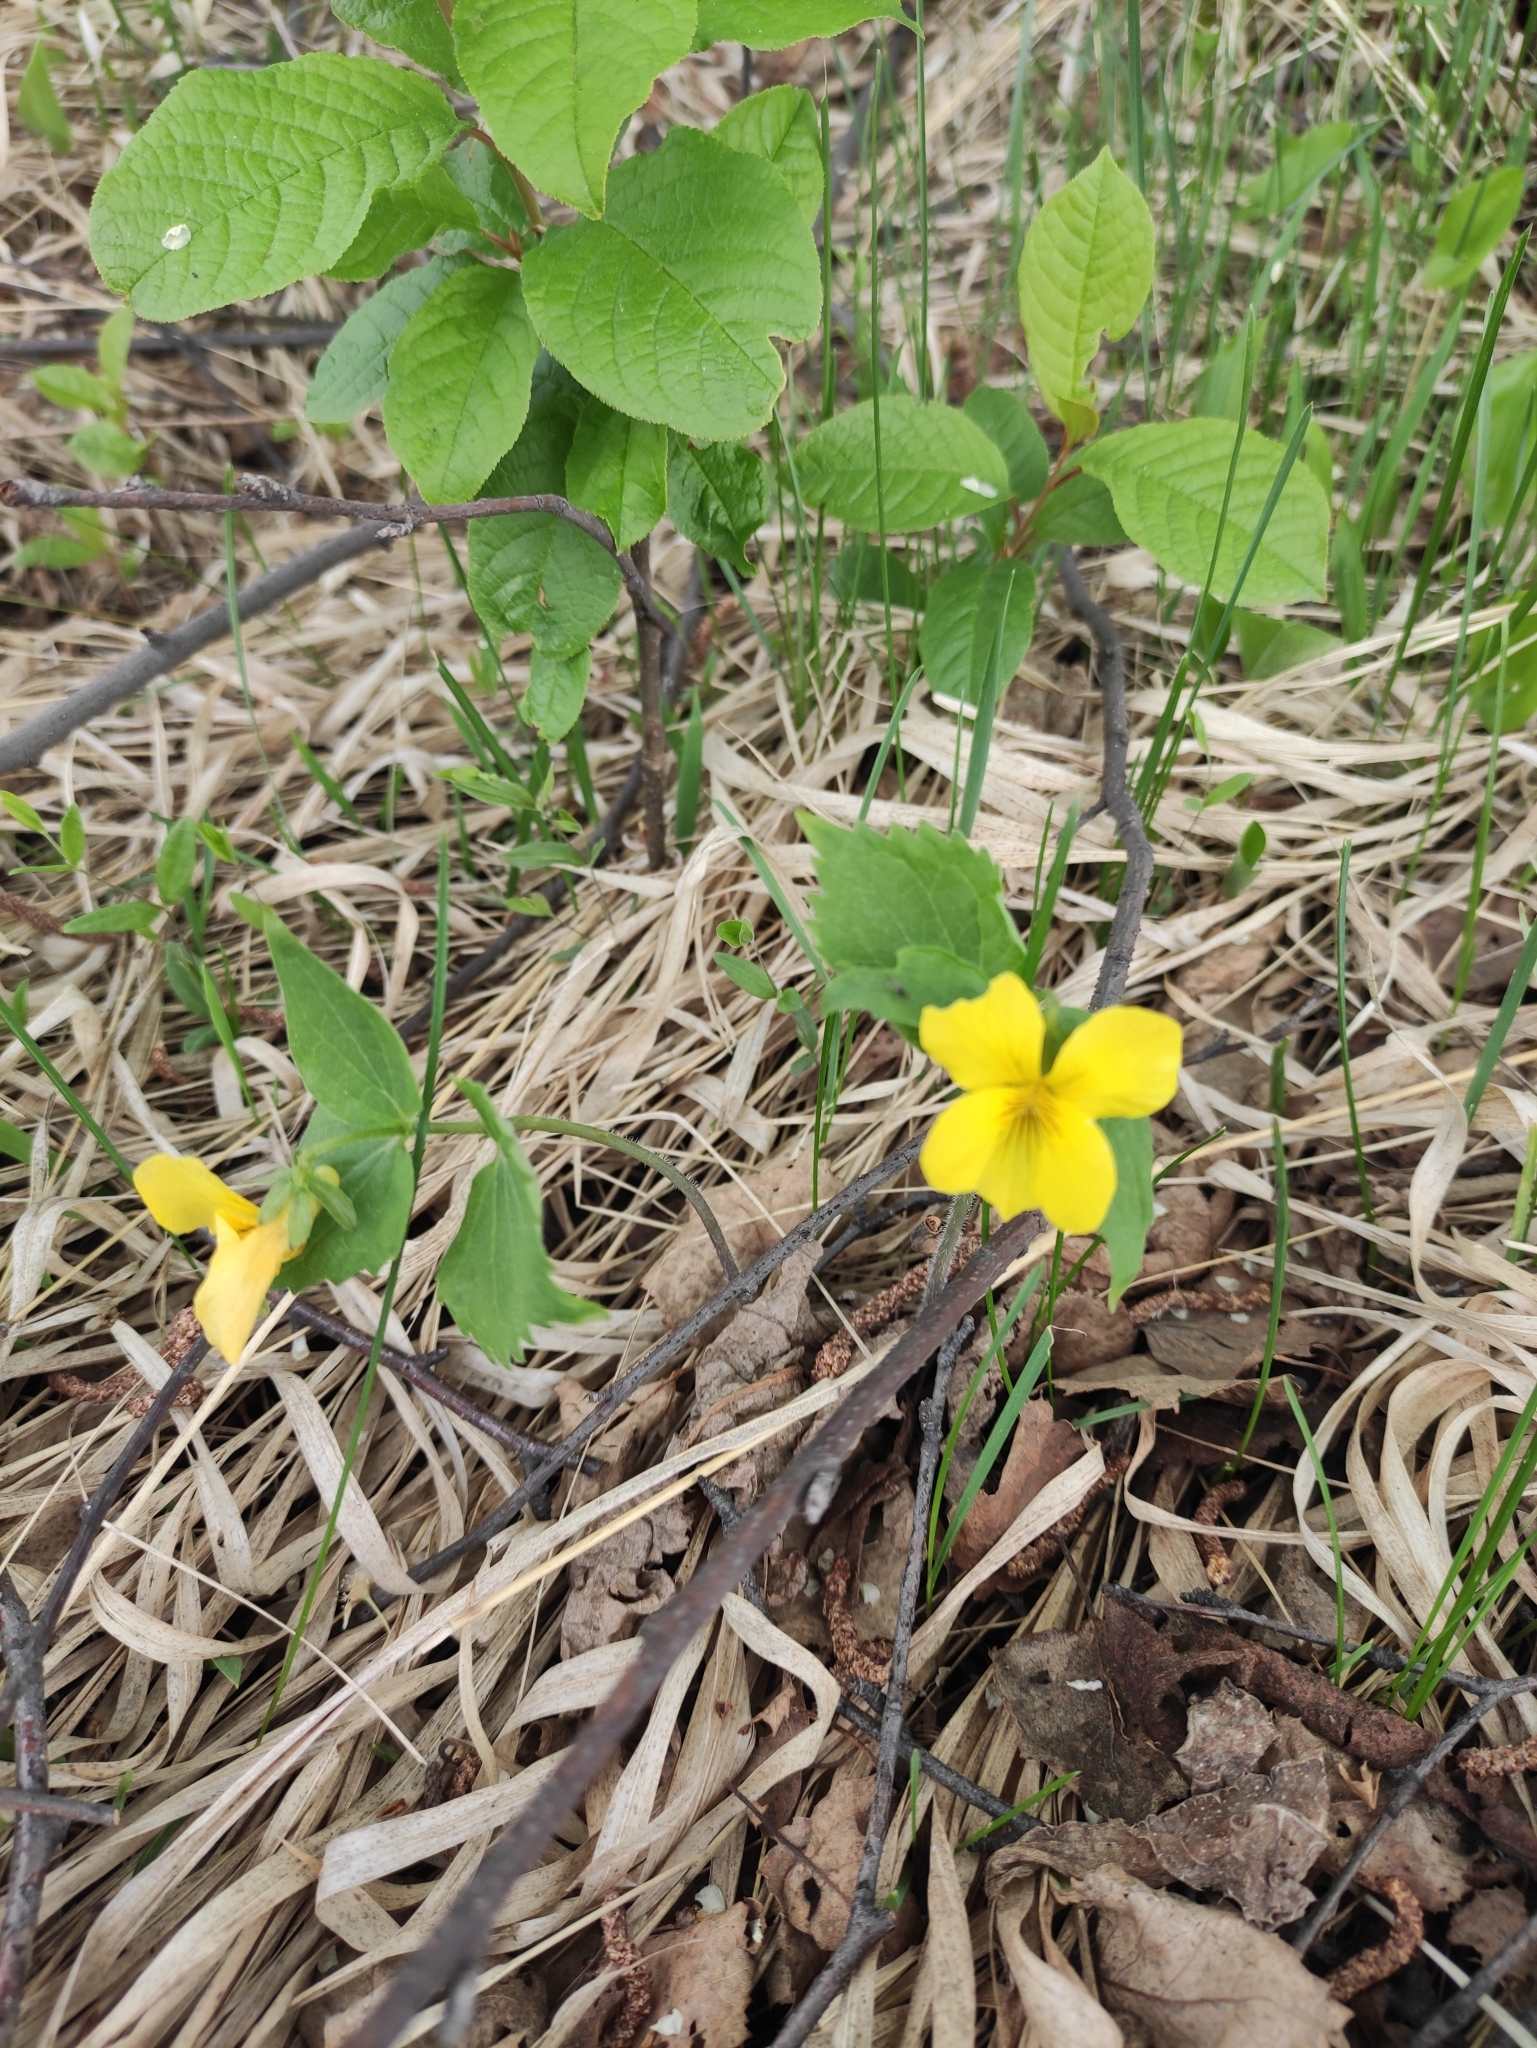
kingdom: Plantae
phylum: Tracheophyta
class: Magnoliopsida
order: Malpighiales
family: Violaceae
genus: Viola
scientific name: Viola uniflora
